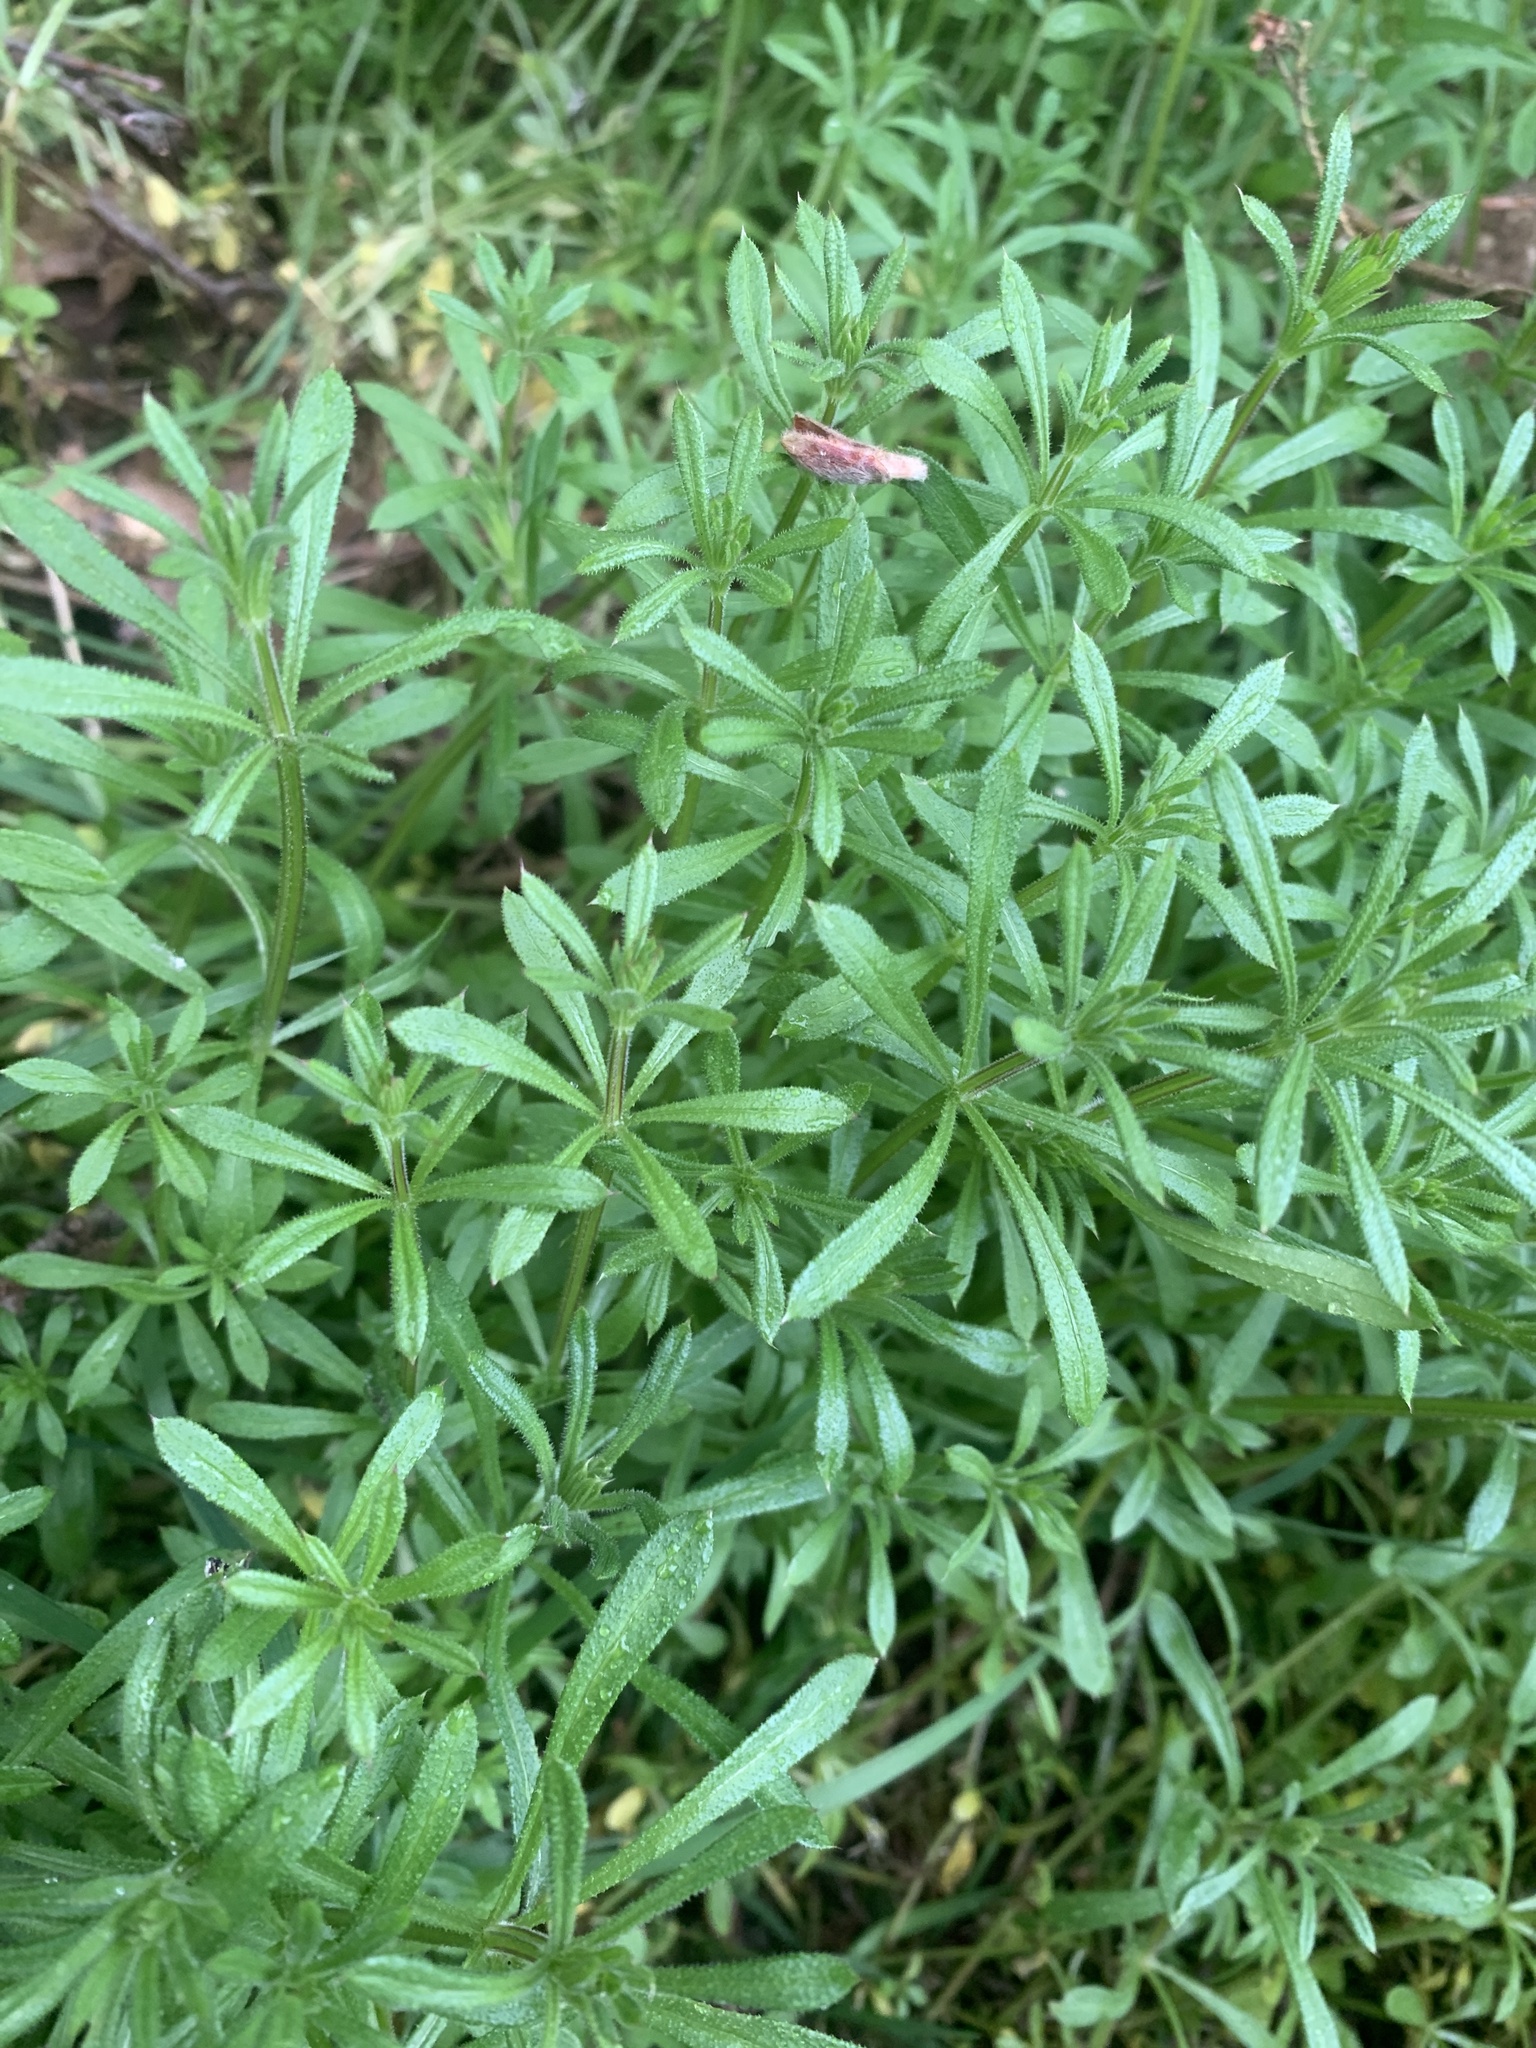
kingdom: Plantae
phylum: Tracheophyta
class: Magnoliopsida
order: Gentianales
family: Rubiaceae
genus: Galium
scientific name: Galium aparine
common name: Cleavers
